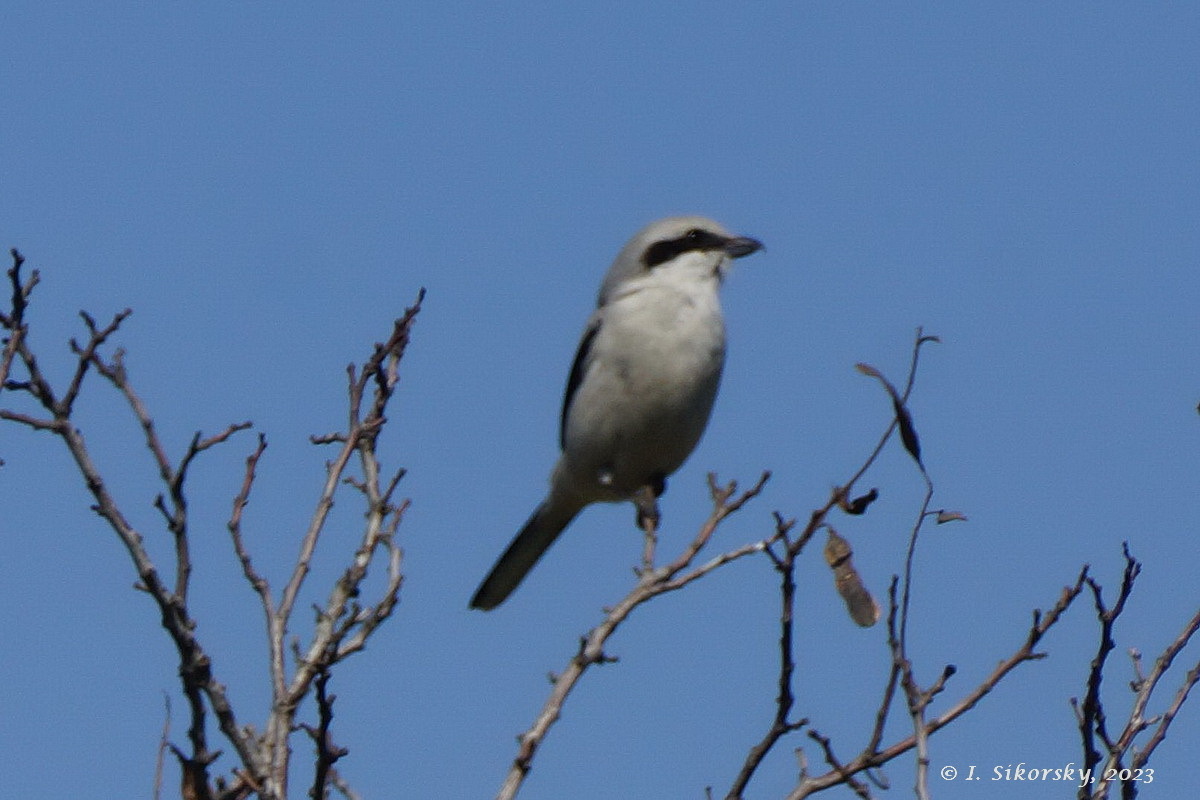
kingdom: Animalia
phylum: Chordata
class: Aves
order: Passeriformes
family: Laniidae
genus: Lanius
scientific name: Lanius excubitor
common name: Great grey shrike
